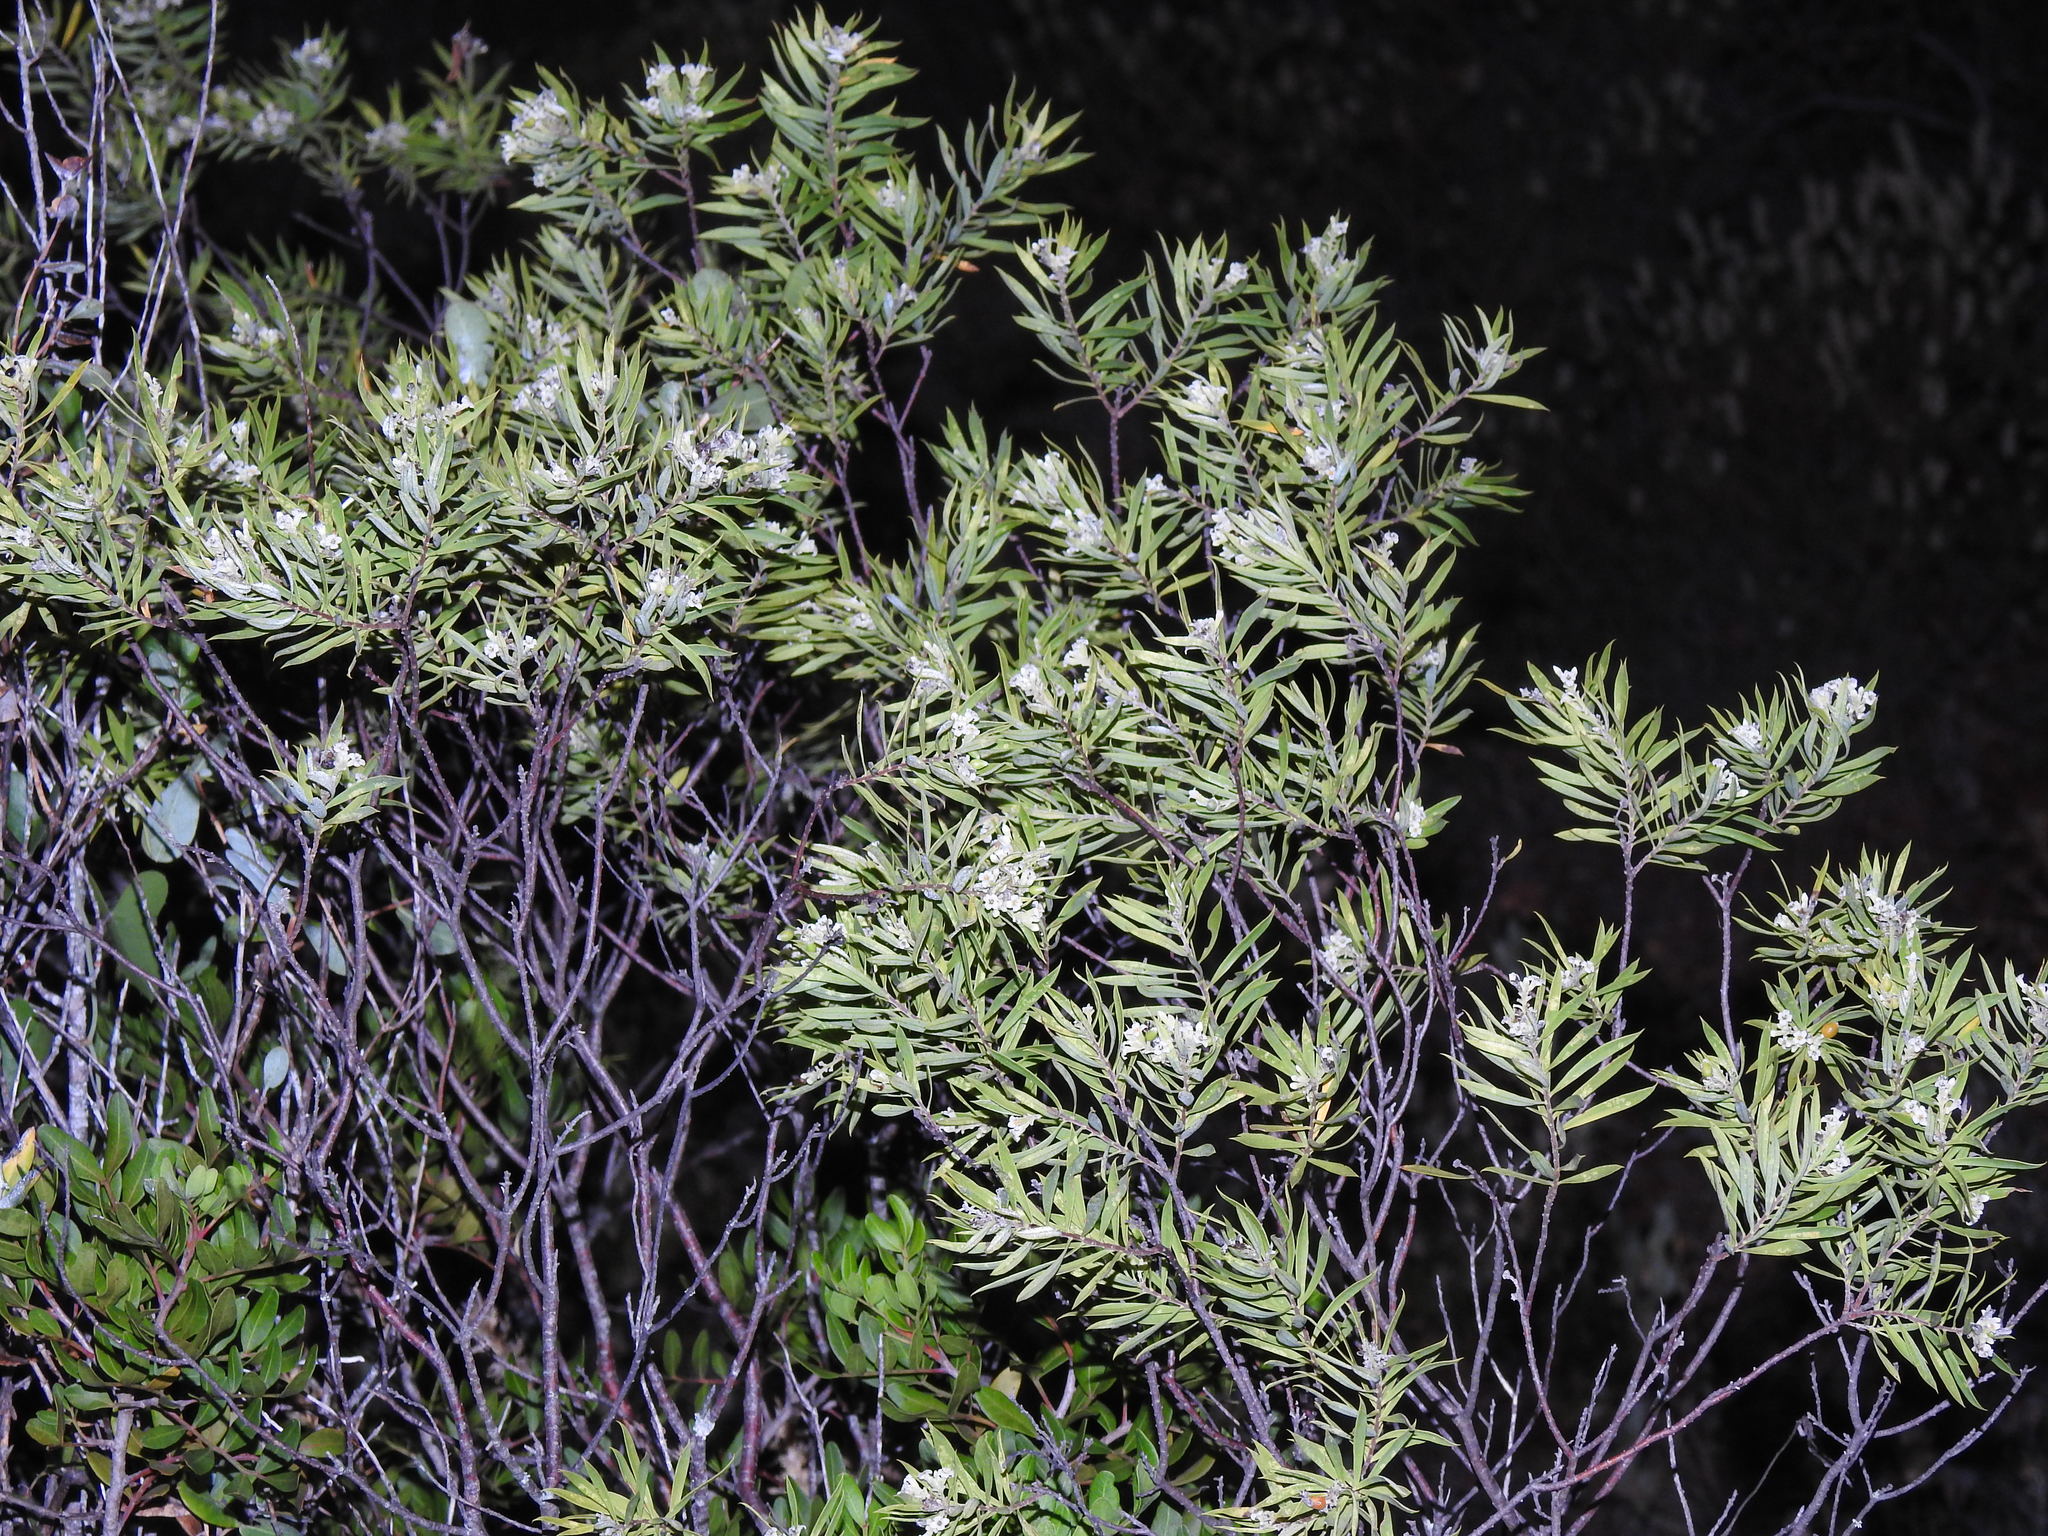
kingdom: Plantae
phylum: Tracheophyta
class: Magnoliopsida
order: Malvales
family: Thymelaeaceae
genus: Daphne
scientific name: Daphne gnidium
